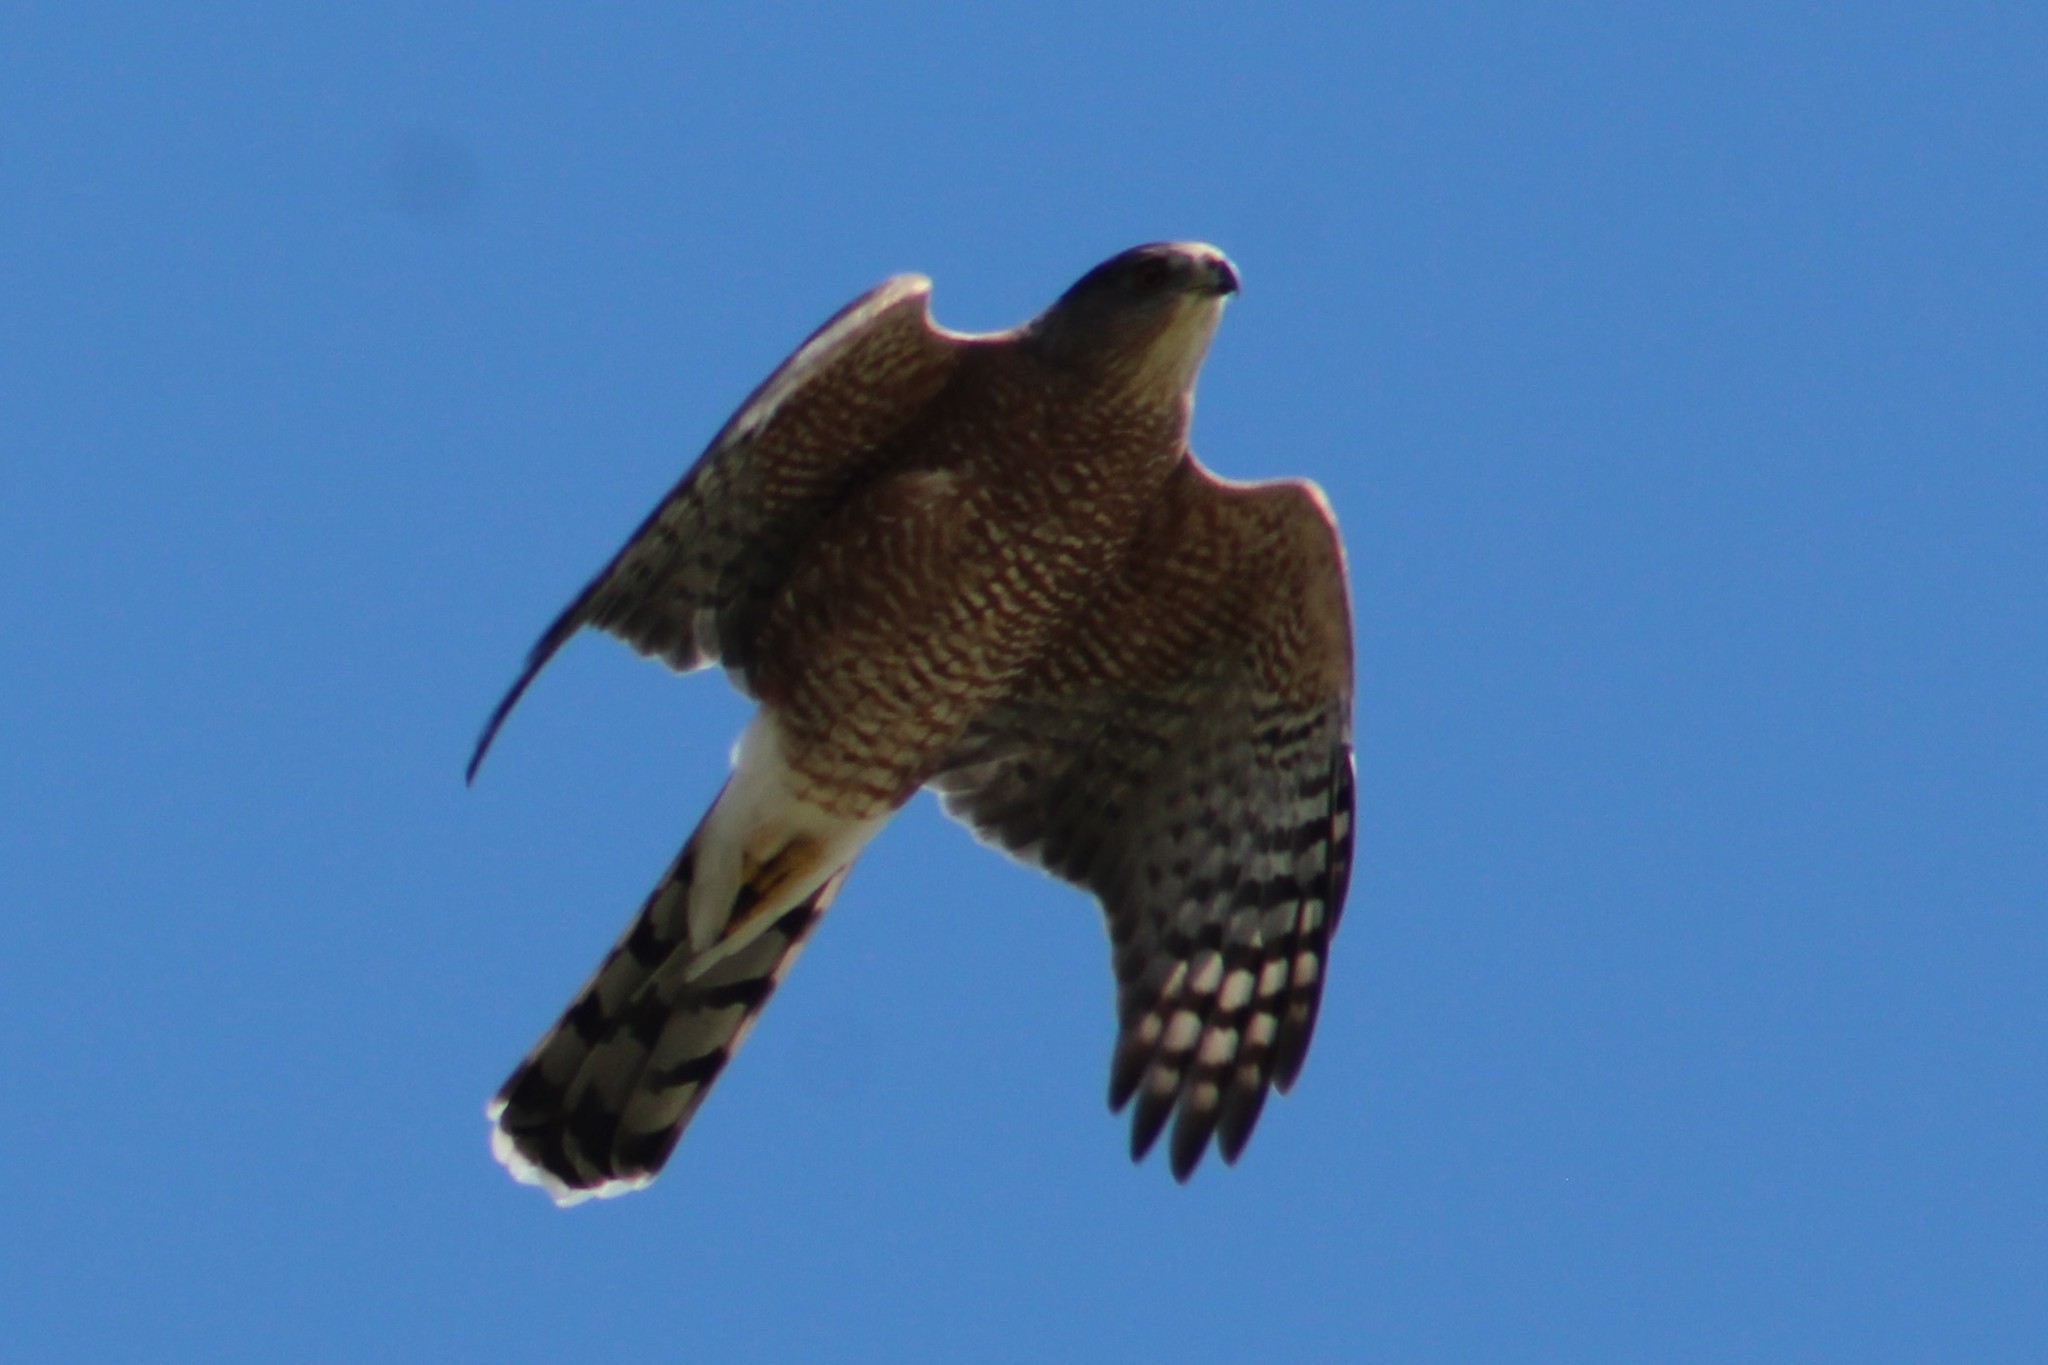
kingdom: Animalia
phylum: Chordata
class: Aves
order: Accipitriformes
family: Accipitridae
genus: Accipiter
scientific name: Accipiter cooperii
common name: Cooper's hawk
